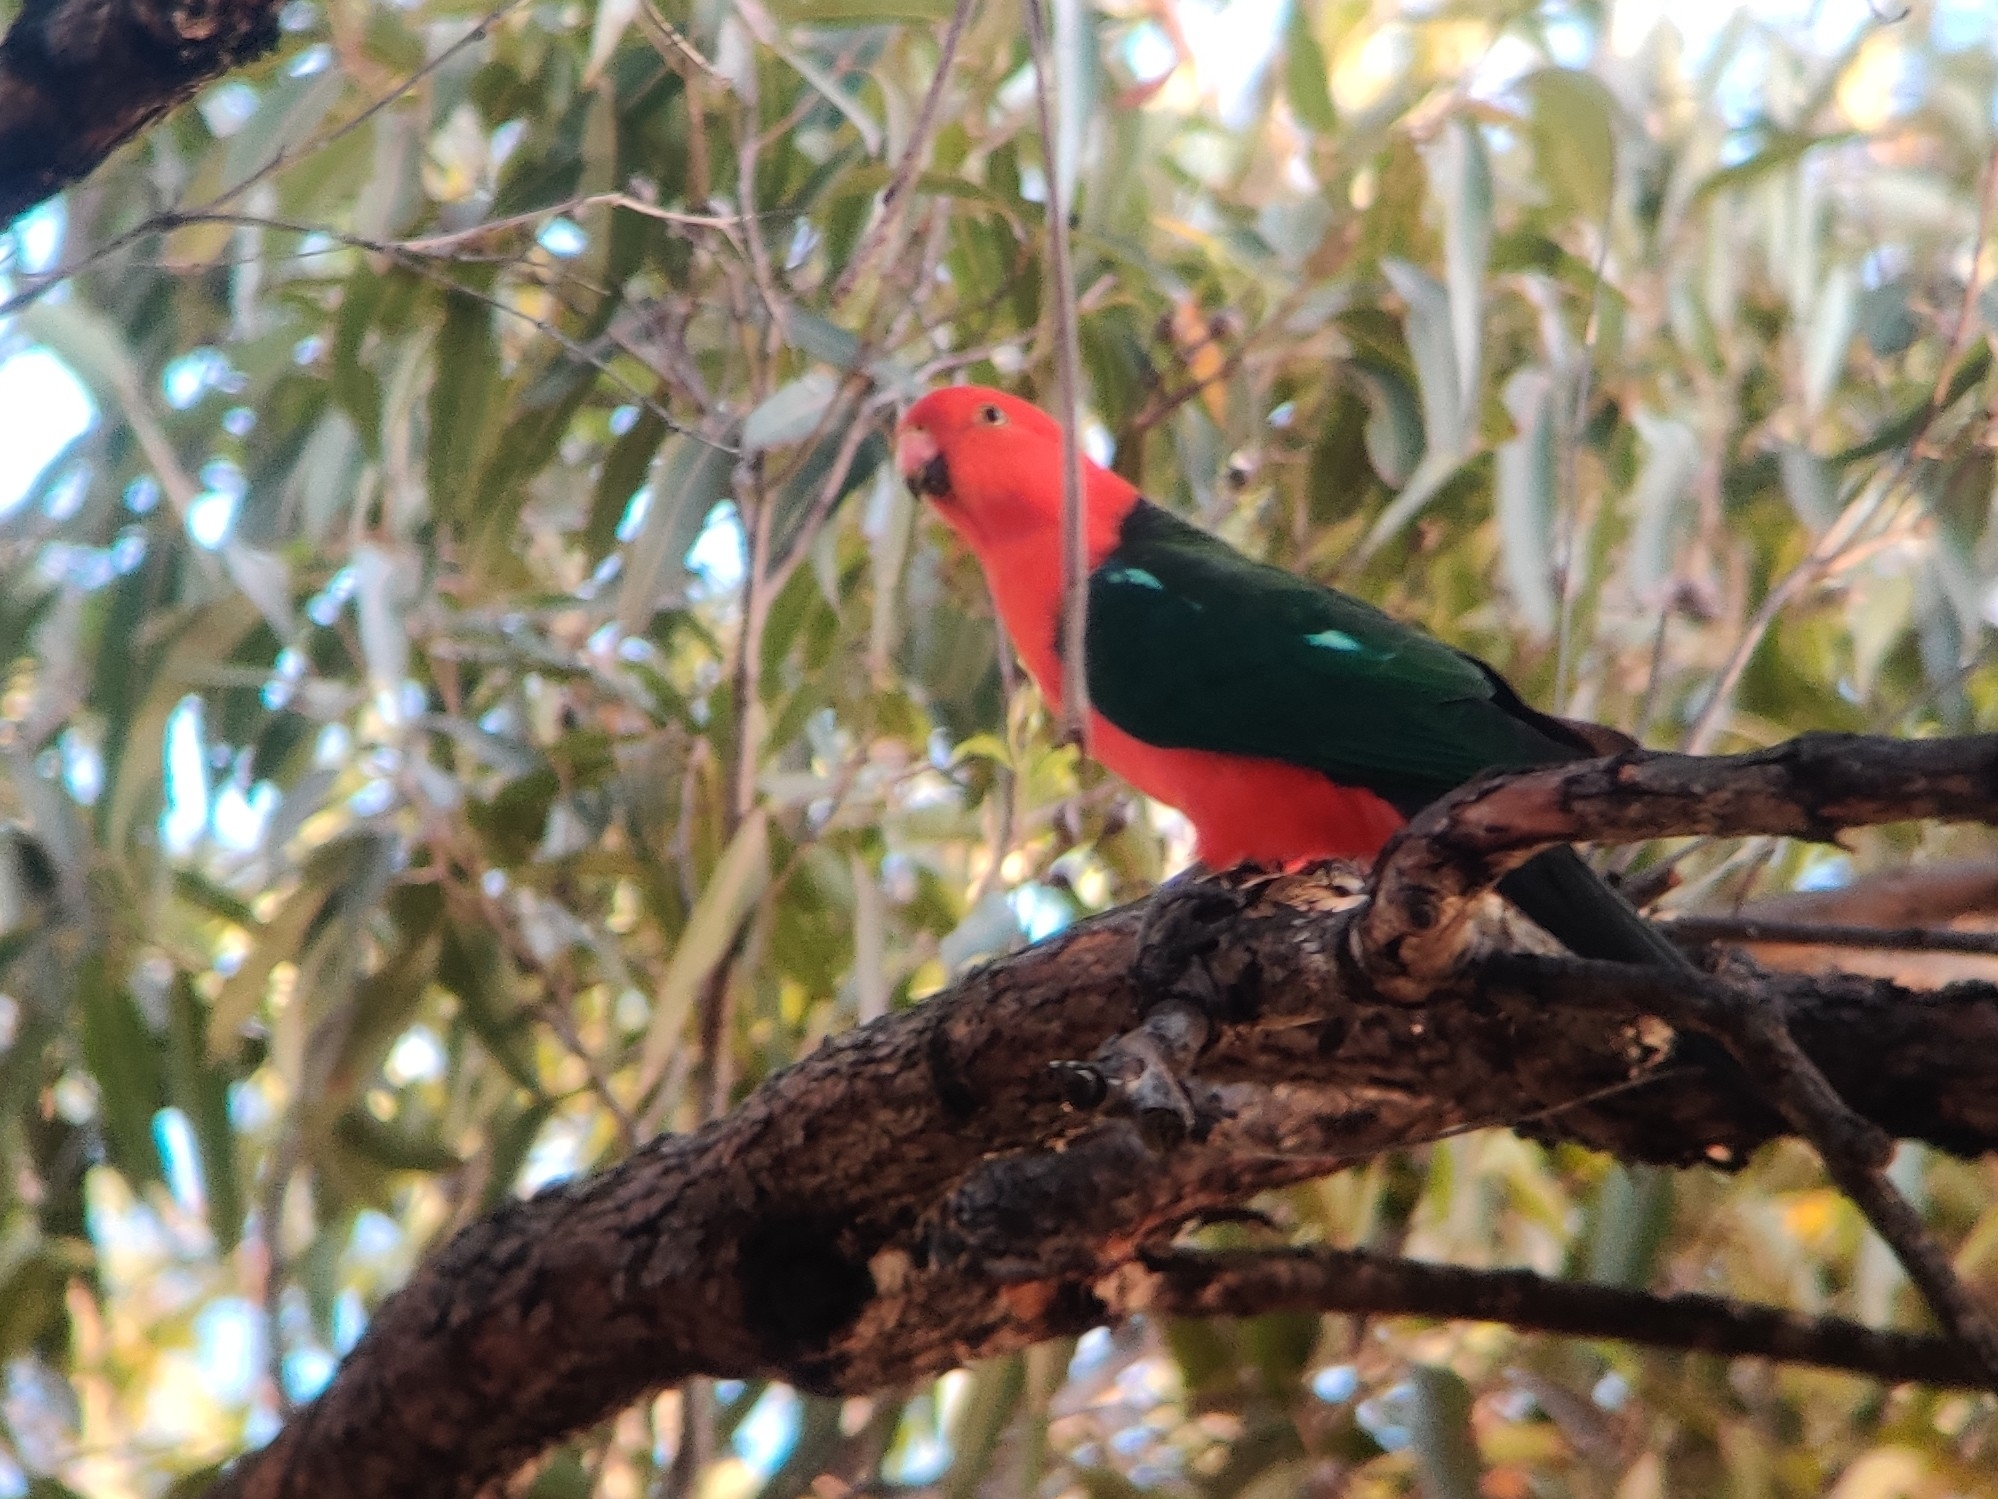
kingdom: Animalia
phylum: Chordata
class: Aves
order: Psittaciformes
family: Psittacidae
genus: Alisterus
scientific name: Alisterus scapularis
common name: Australian king parrot
